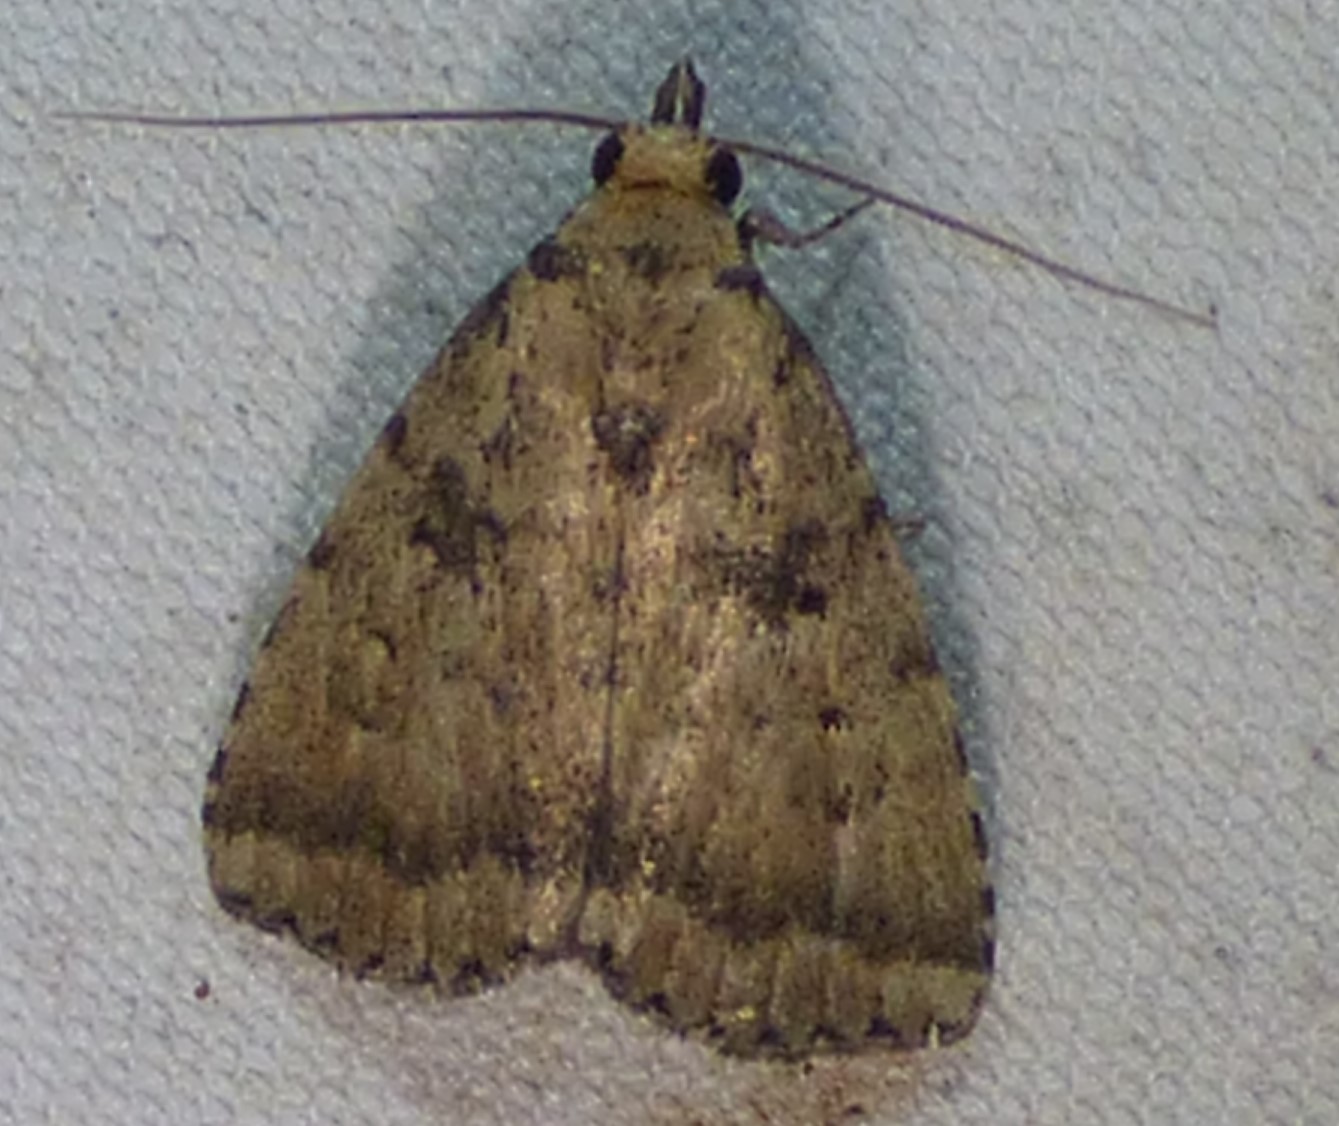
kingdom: Animalia
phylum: Arthropoda
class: Insecta
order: Lepidoptera
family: Erebidae
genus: Arugisa
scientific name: Arugisa lutea
